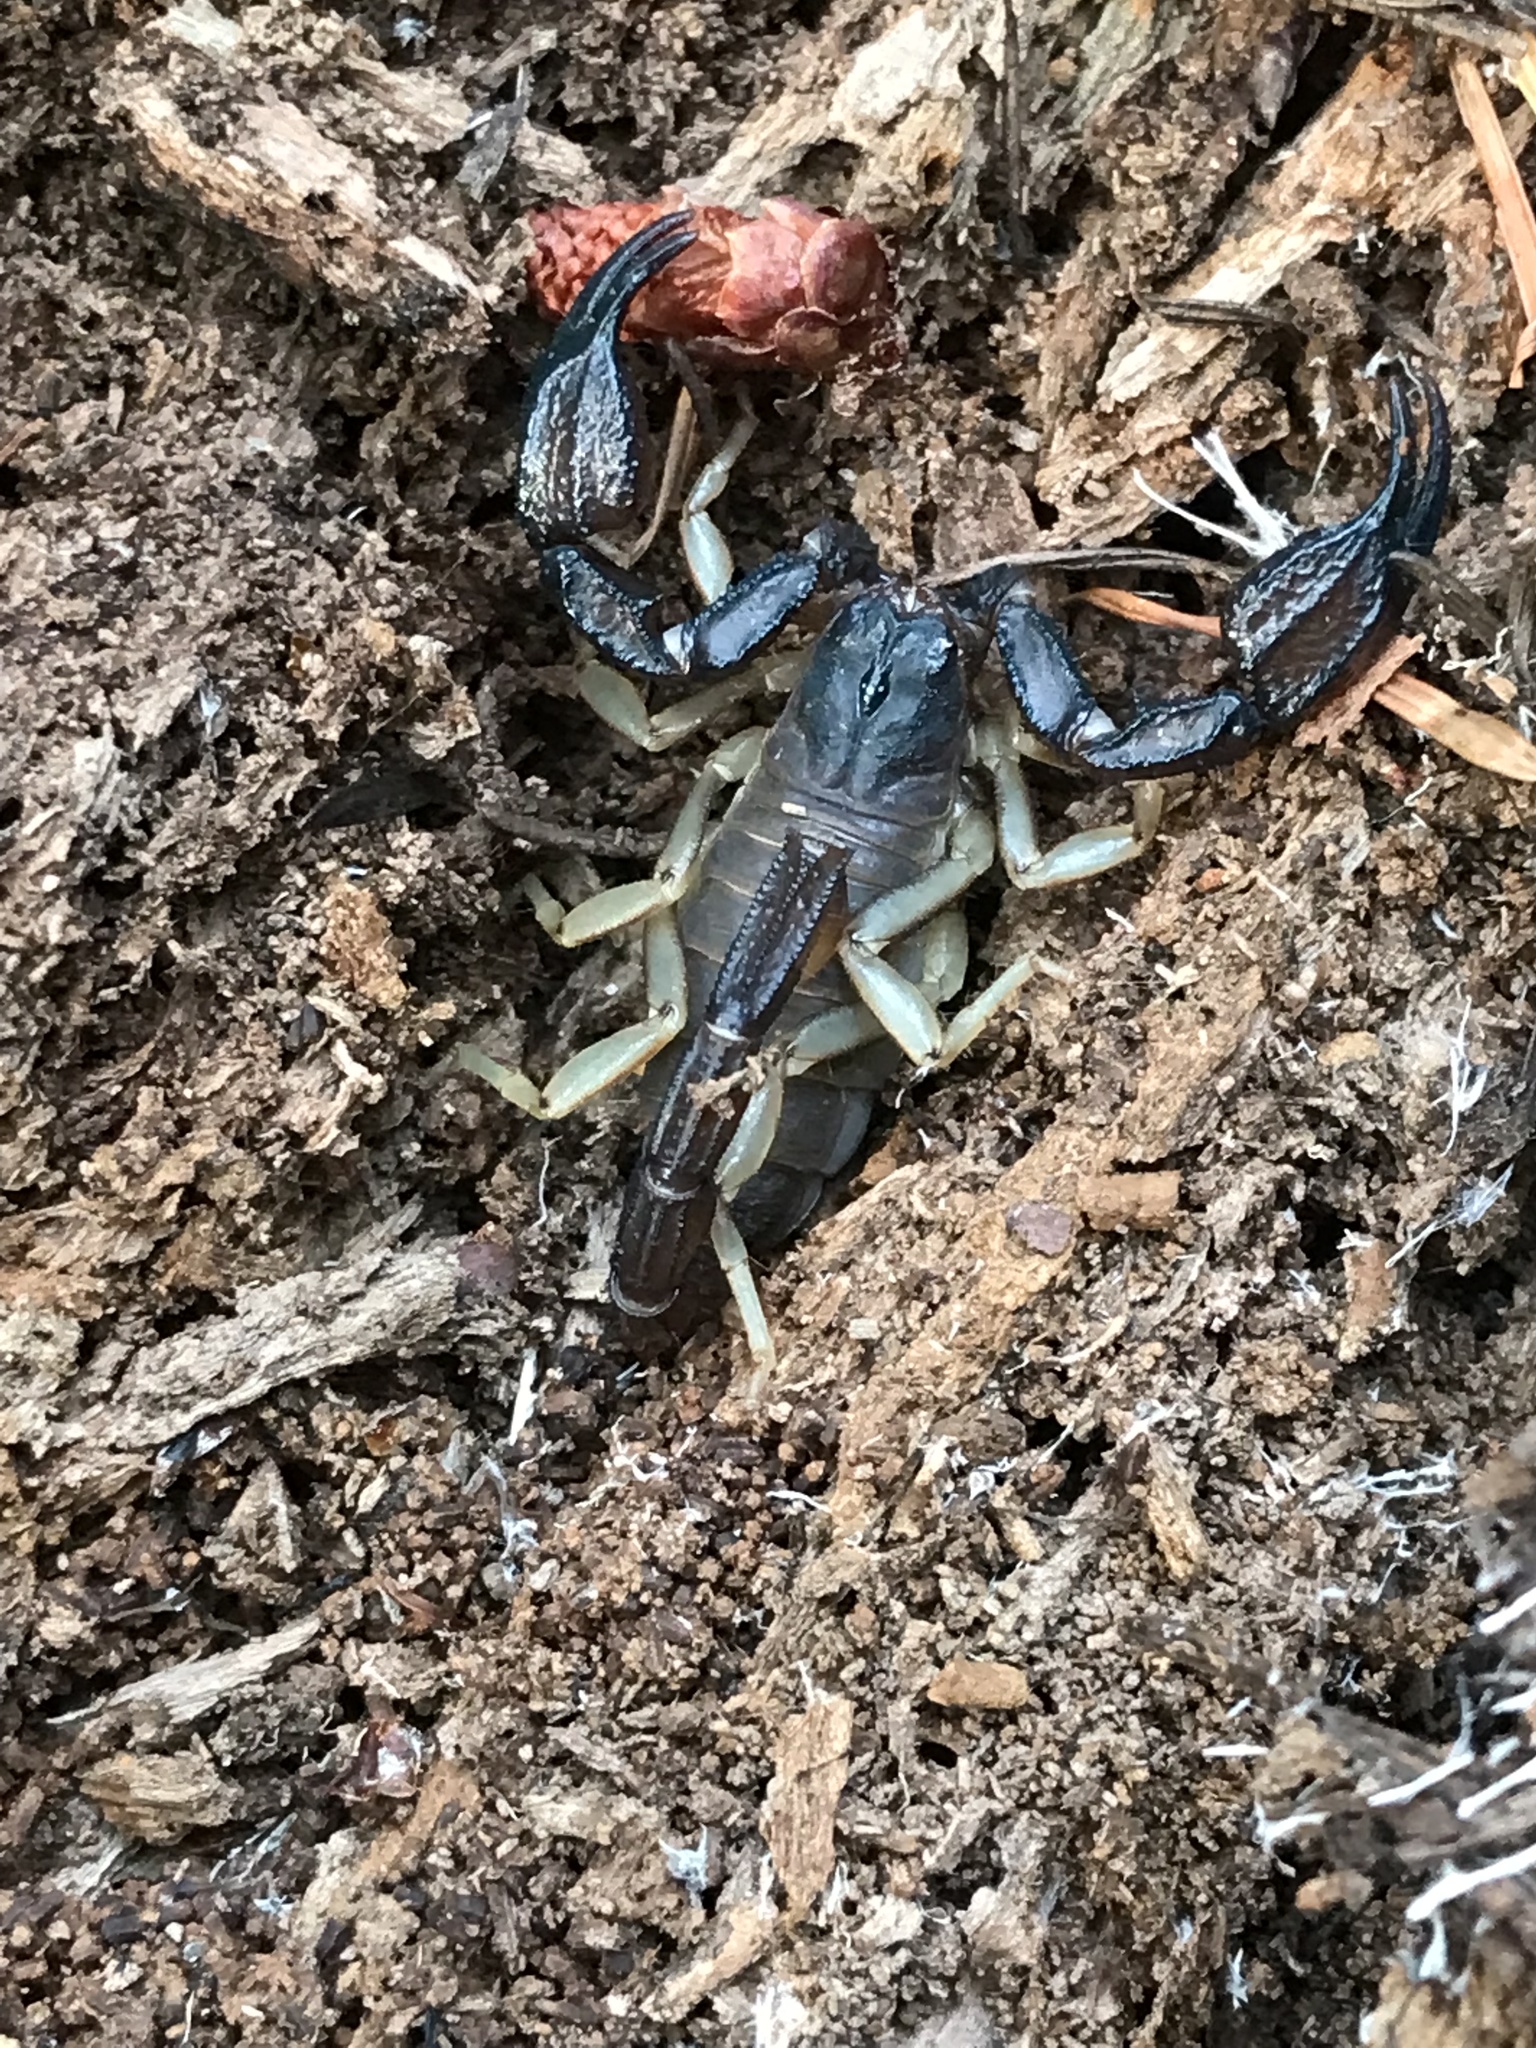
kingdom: Animalia
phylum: Arthropoda
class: Arachnida
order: Scorpiones
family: Chactidae
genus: Uroctonus
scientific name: Uroctonus mordax
